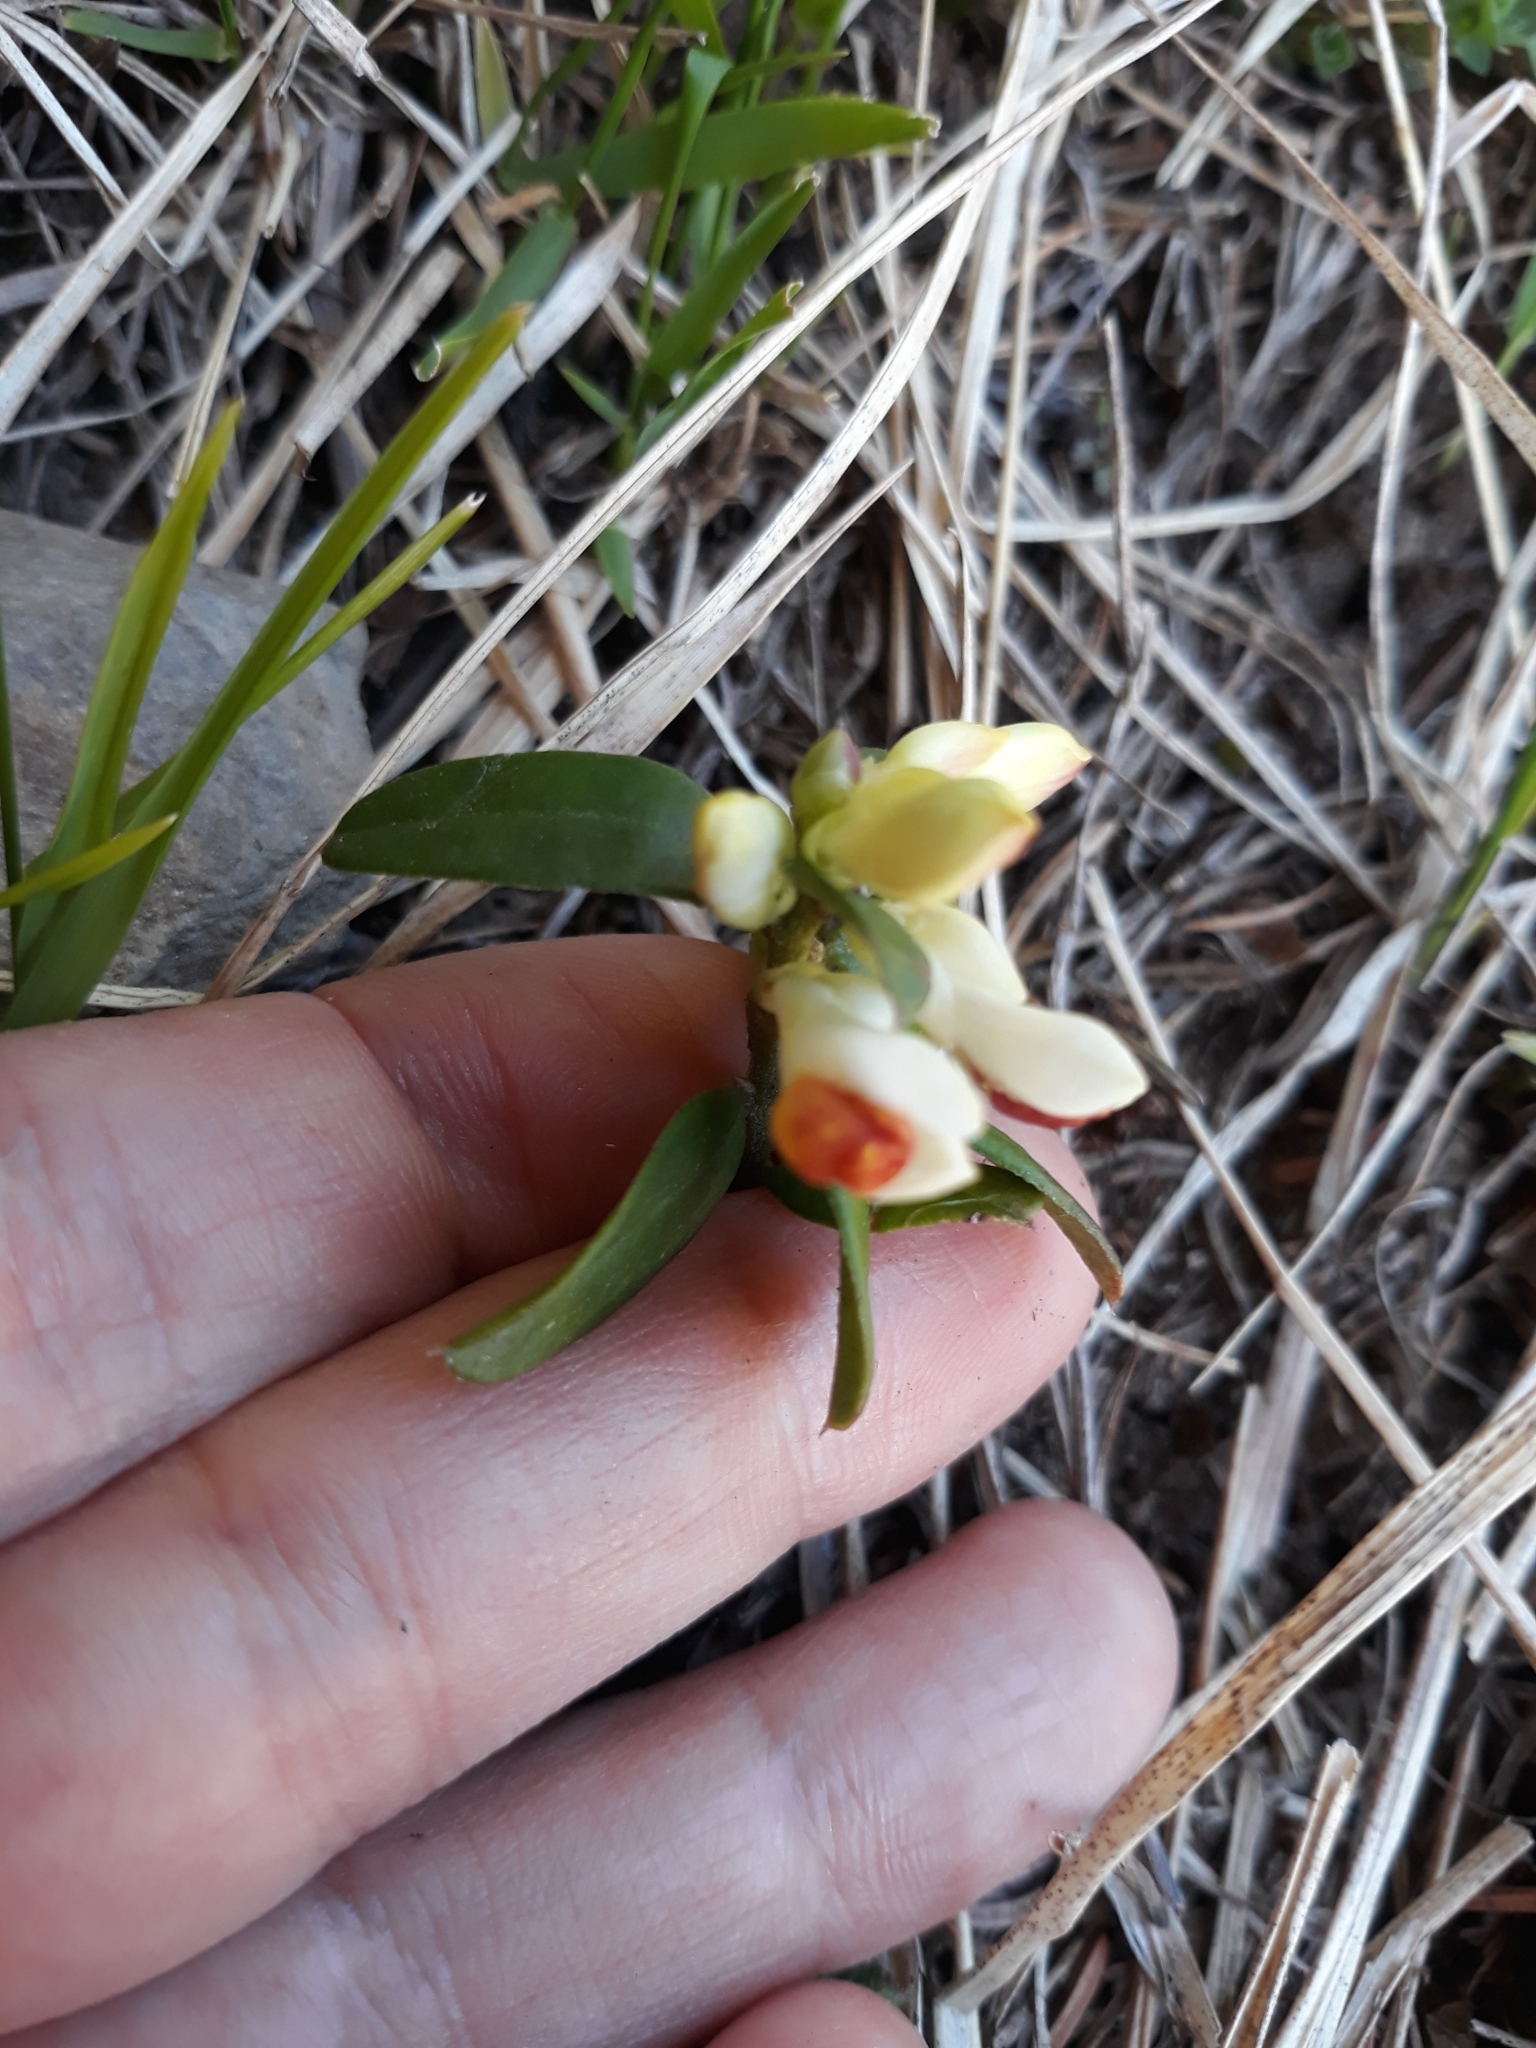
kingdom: Plantae
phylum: Tracheophyta
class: Magnoliopsida
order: Fabales
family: Polygalaceae
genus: Polygaloides
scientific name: Polygaloides chamaebuxus
